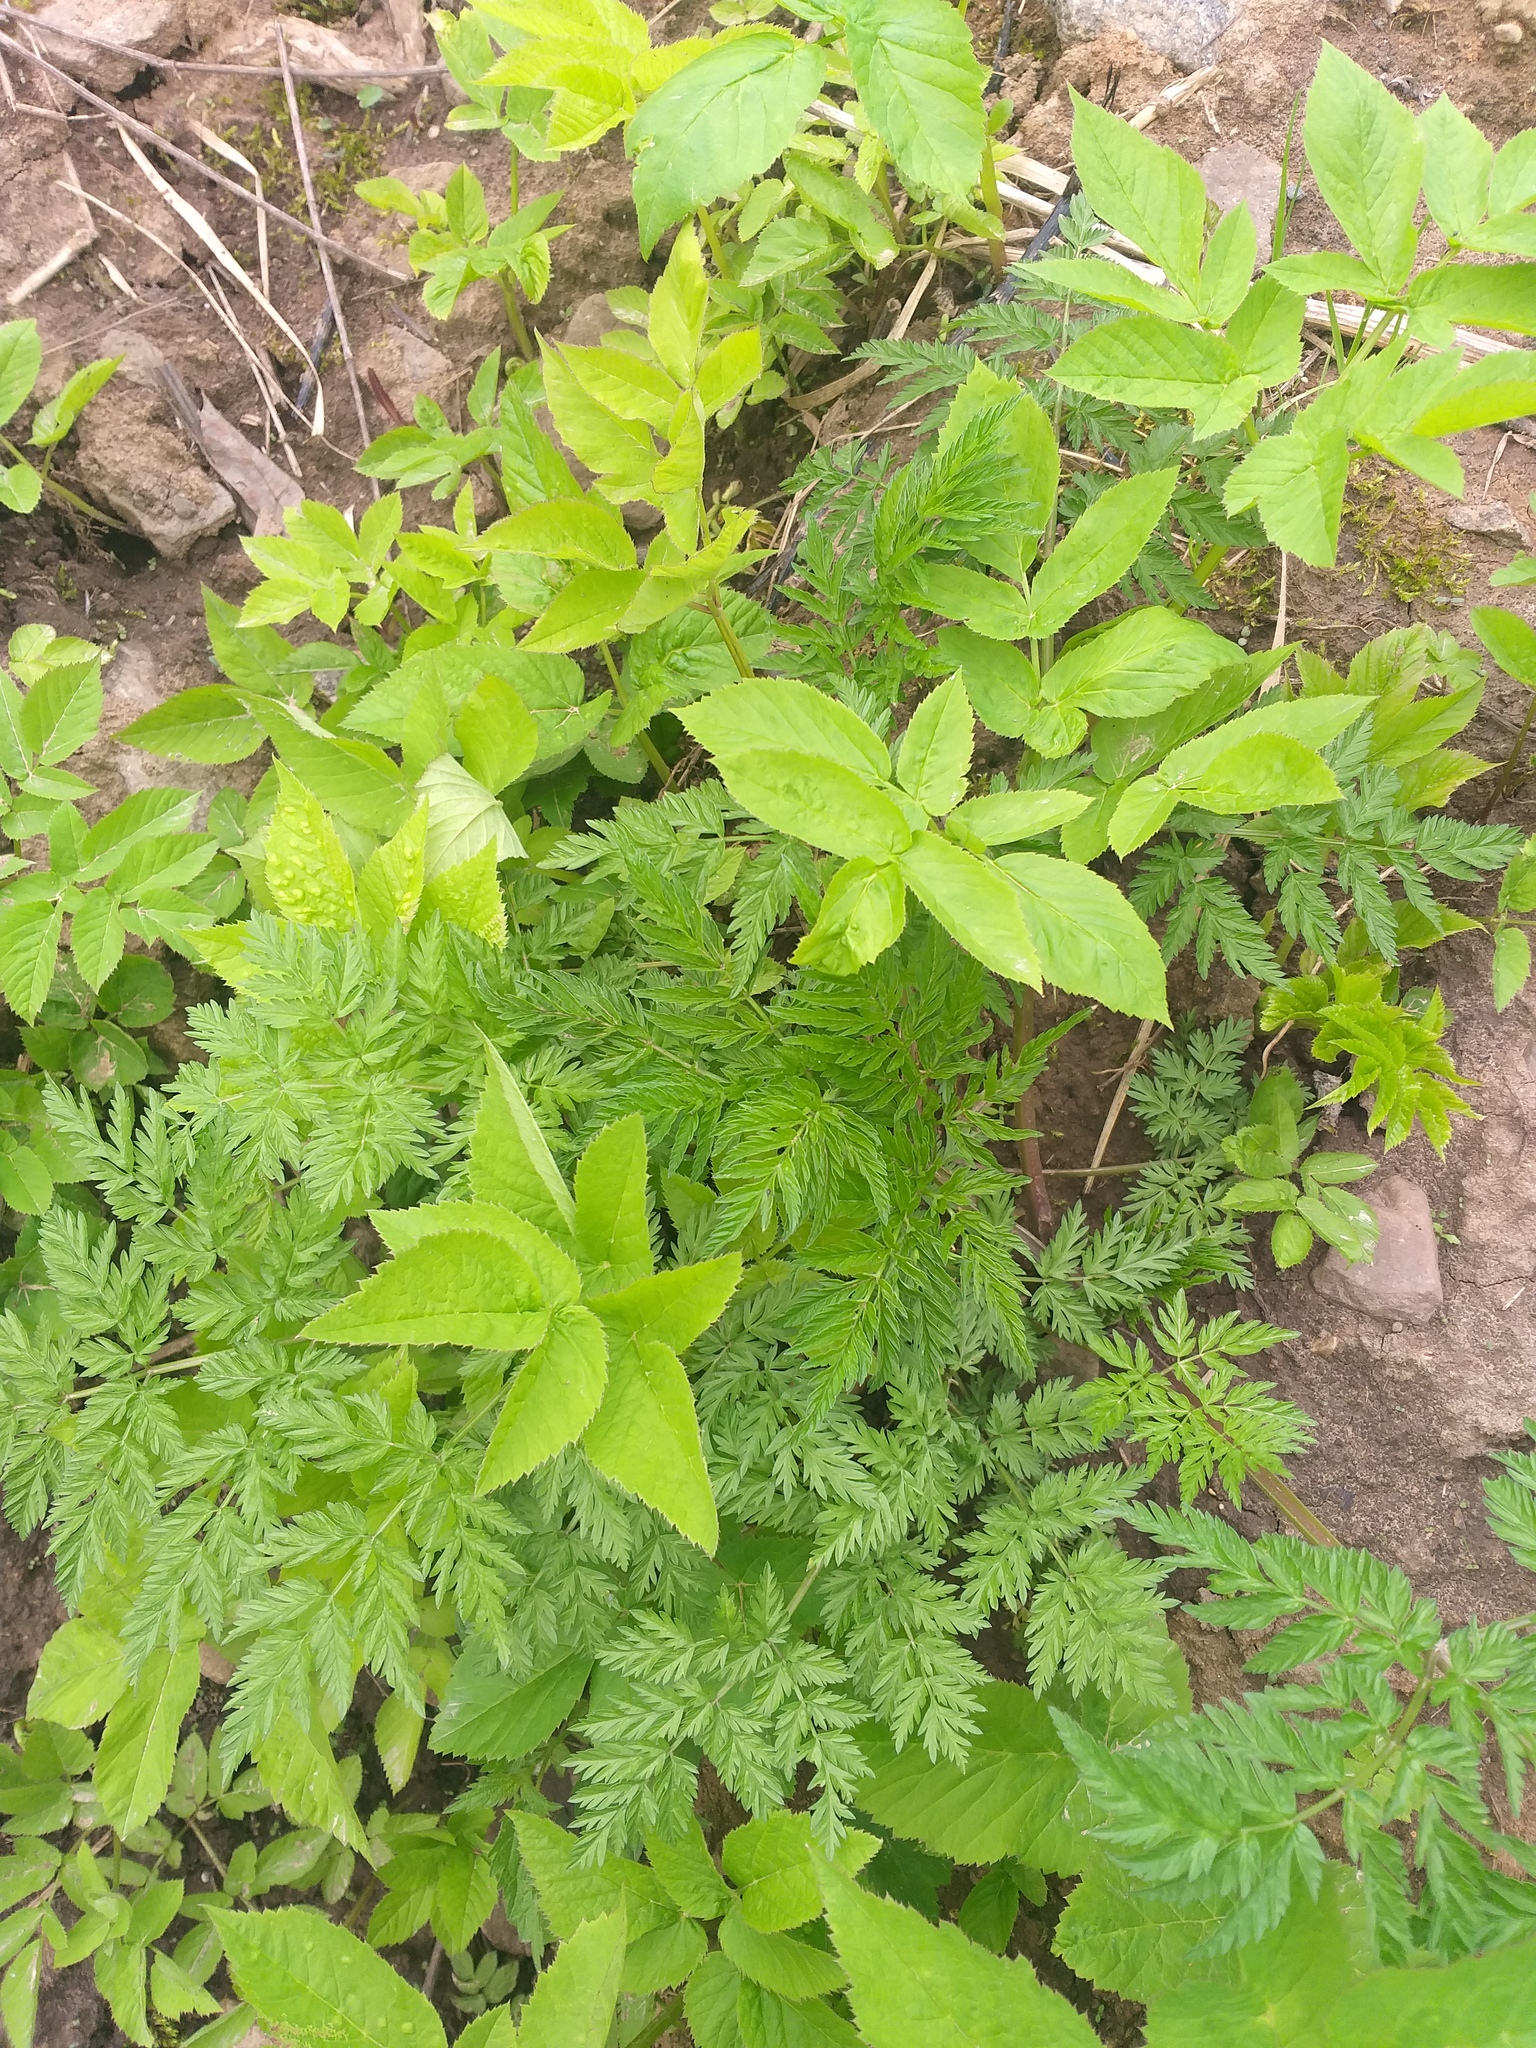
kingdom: Plantae
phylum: Tracheophyta
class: Magnoliopsida
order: Apiales
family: Apiaceae
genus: Anthriscus
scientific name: Anthriscus sylvestris
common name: Cow parsley
